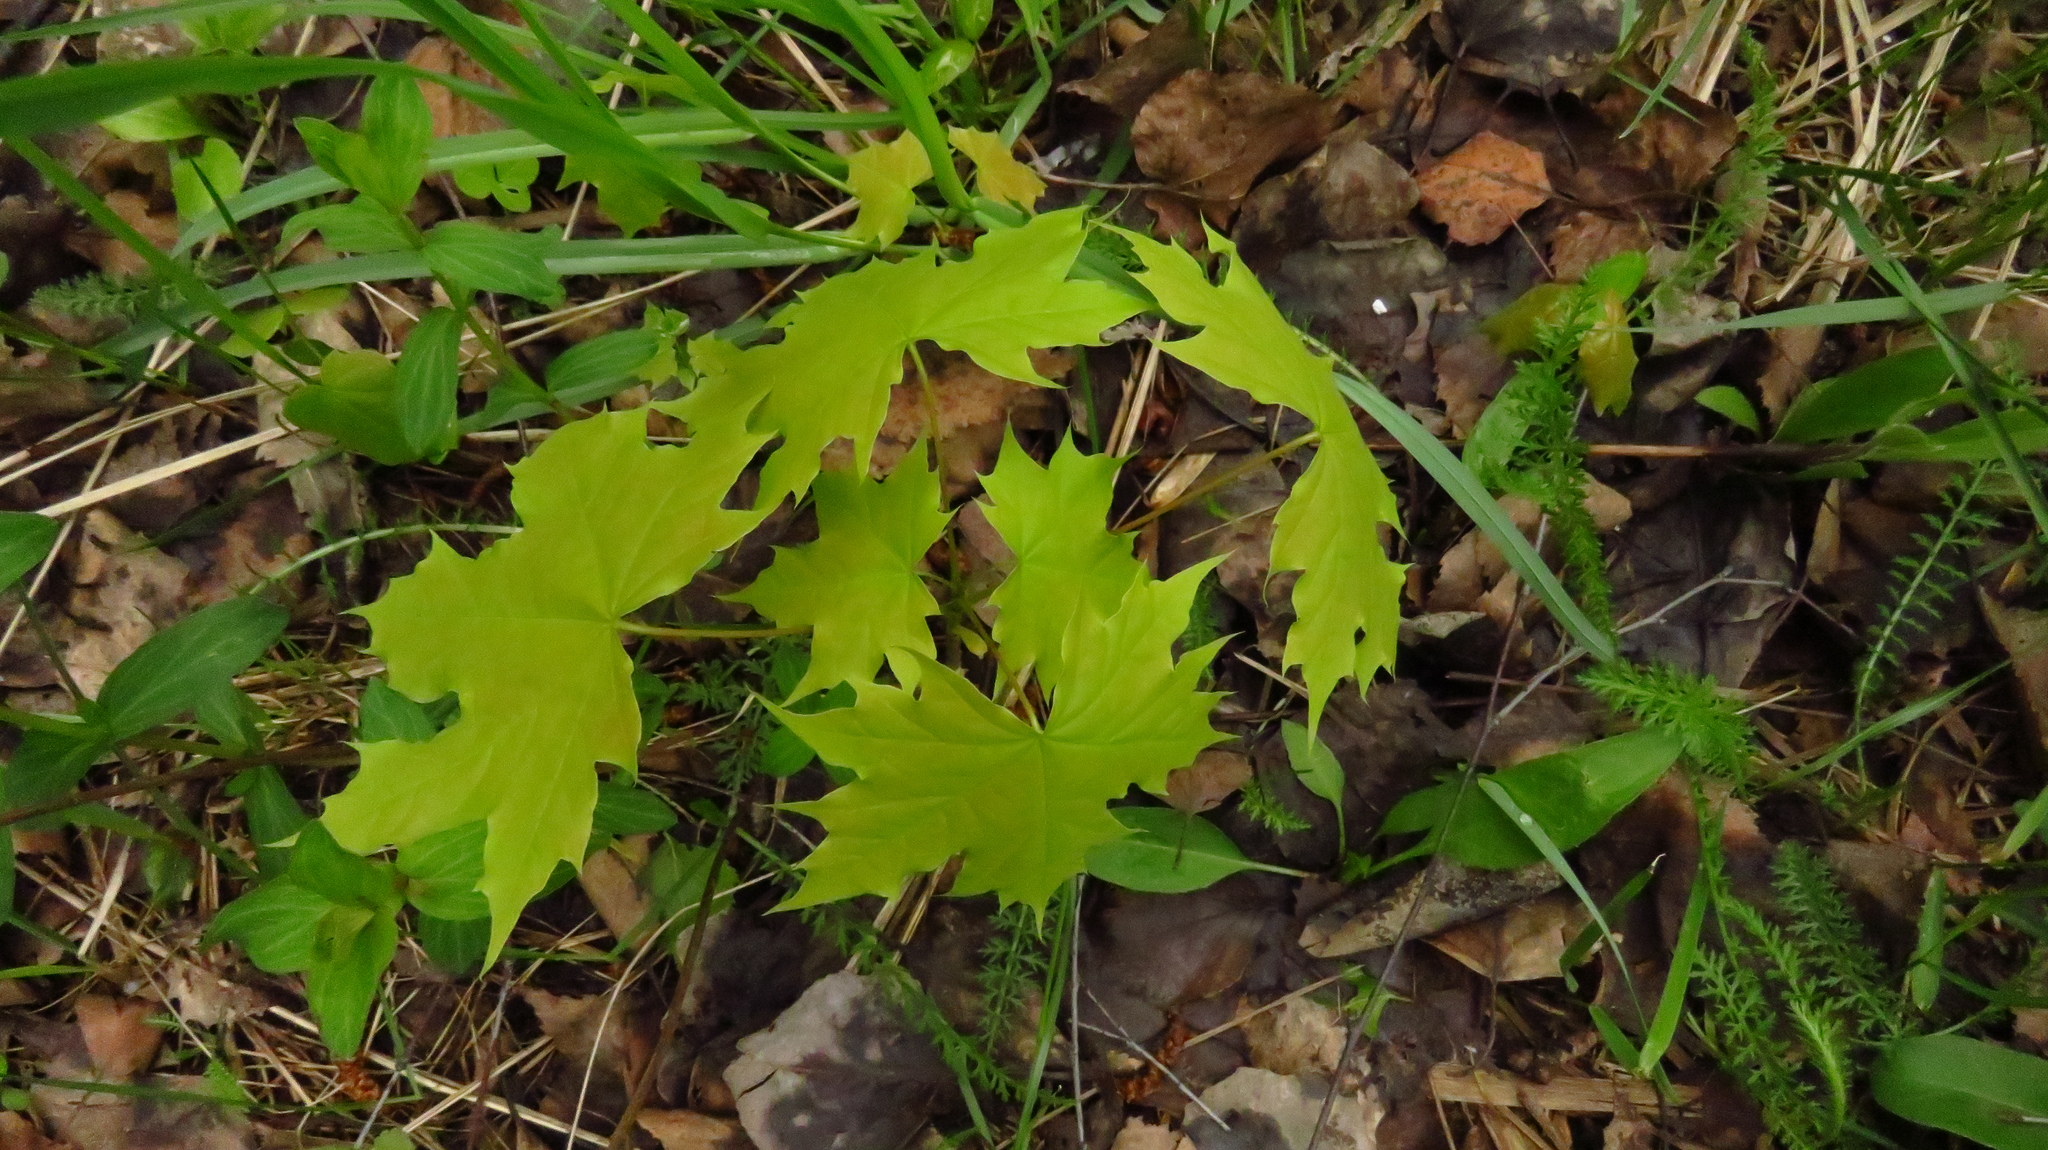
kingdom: Plantae
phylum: Tracheophyta
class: Magnoliopsida
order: Sapindales
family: Sapindaceae
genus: Acer
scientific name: Acer platanoides
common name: Norway maple
